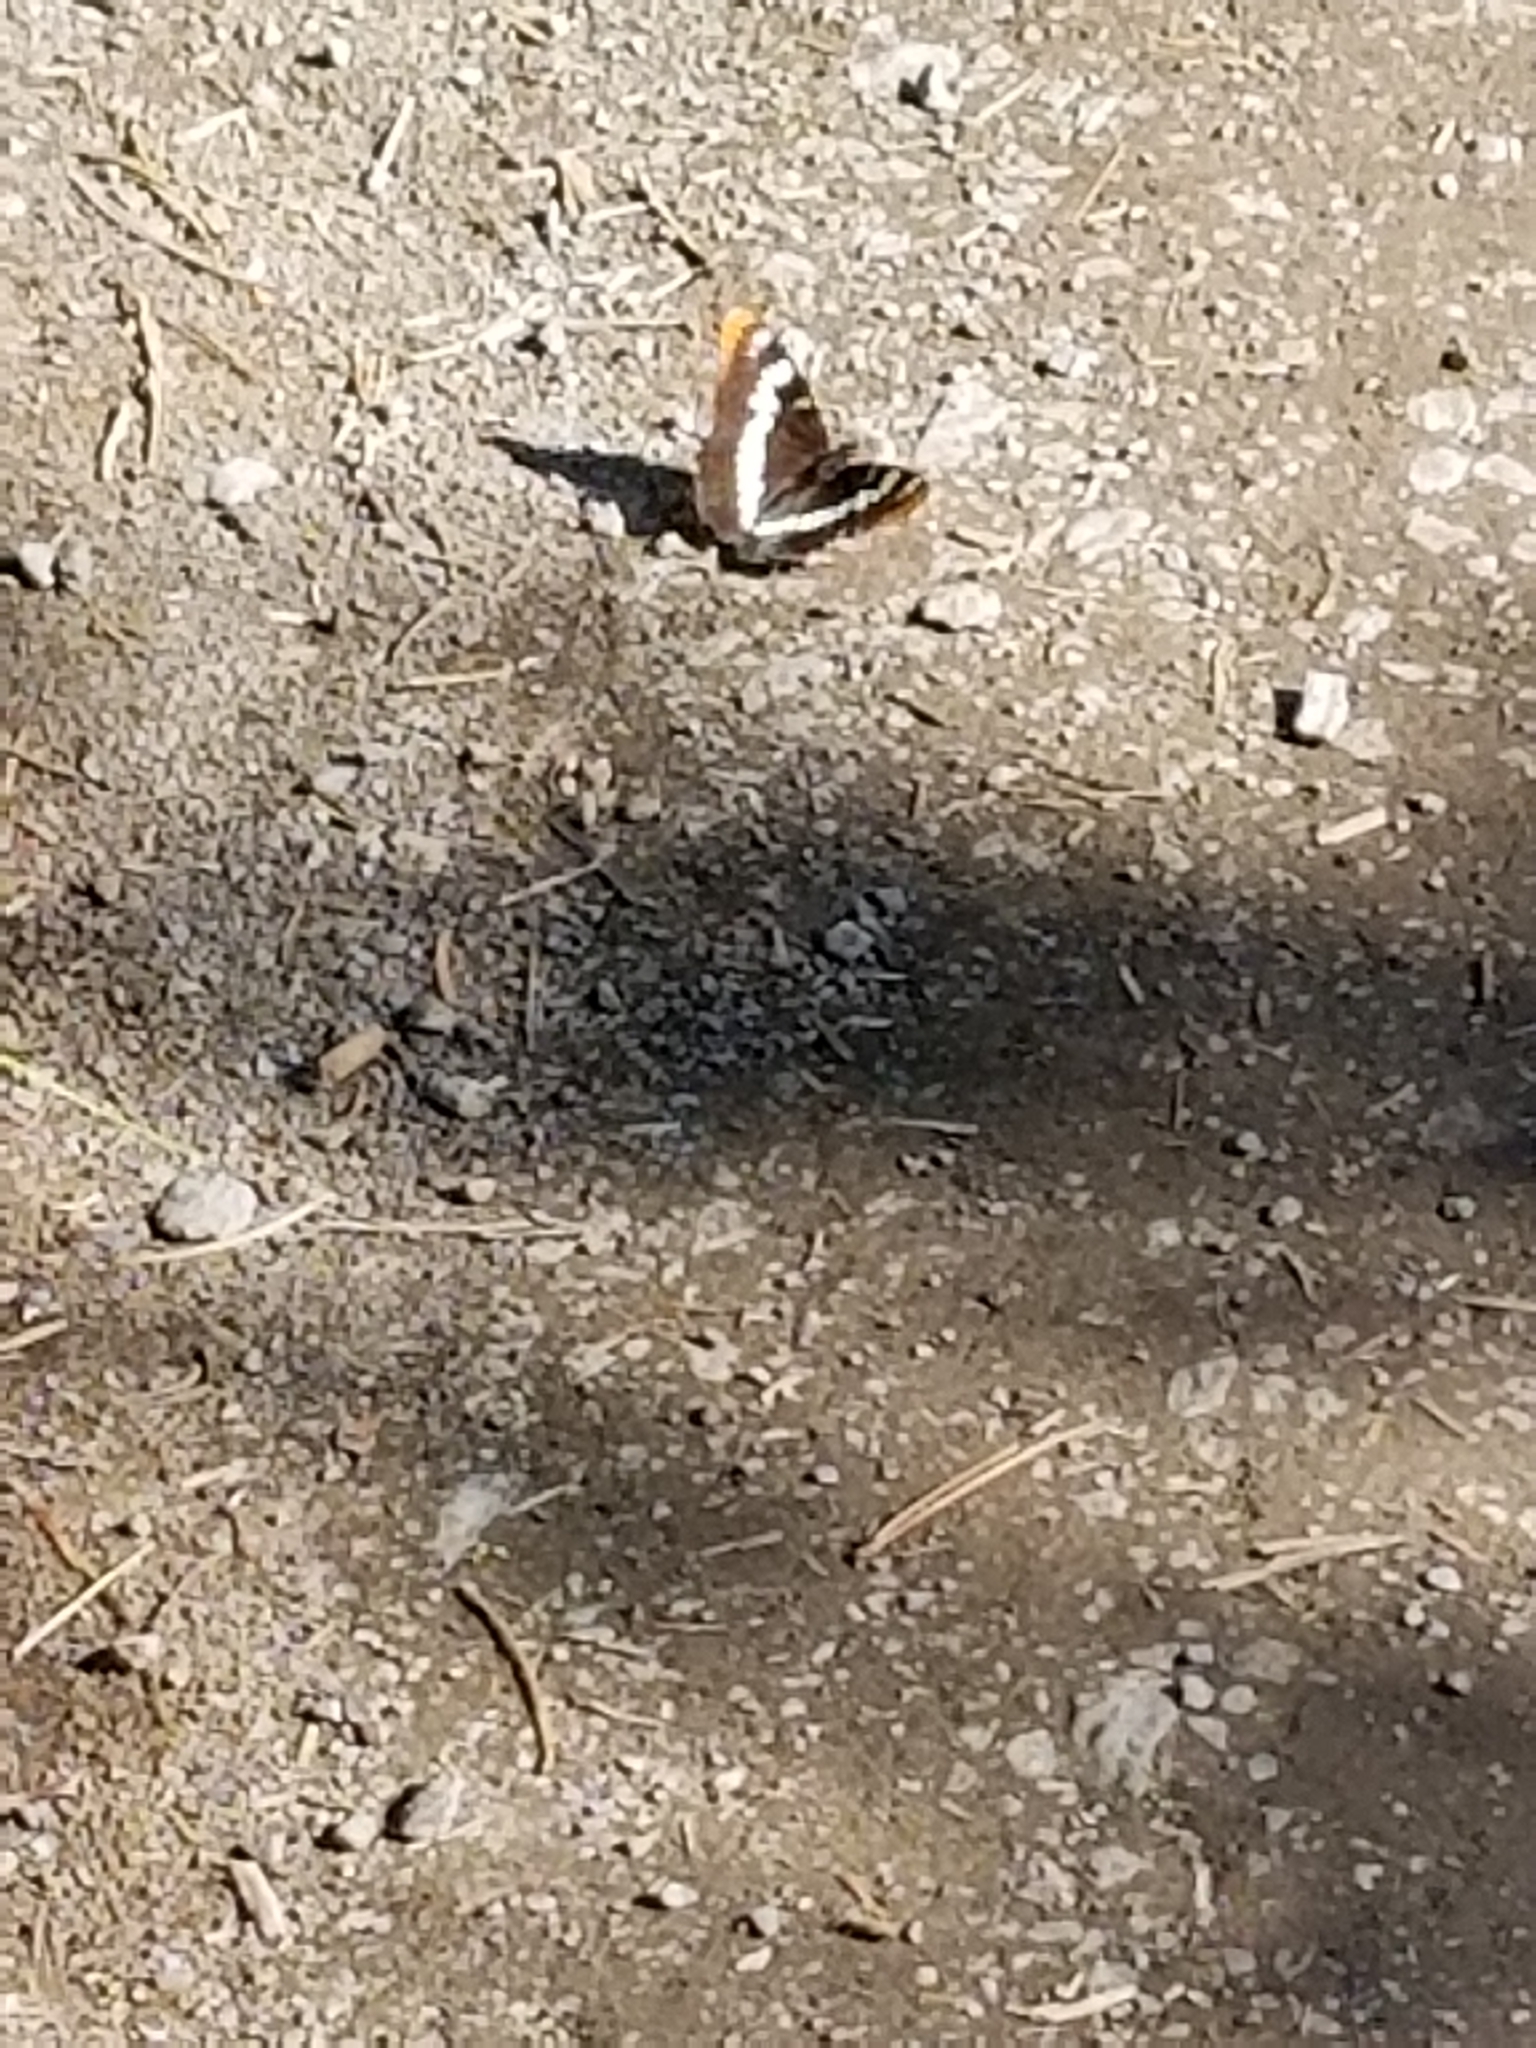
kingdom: Animalia
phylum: Arthropoda
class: Insecta
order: Lepidoptera
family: Nymphalidae
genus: Limenitis
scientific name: Limenitis lorquini
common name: Lorquin's admiral
